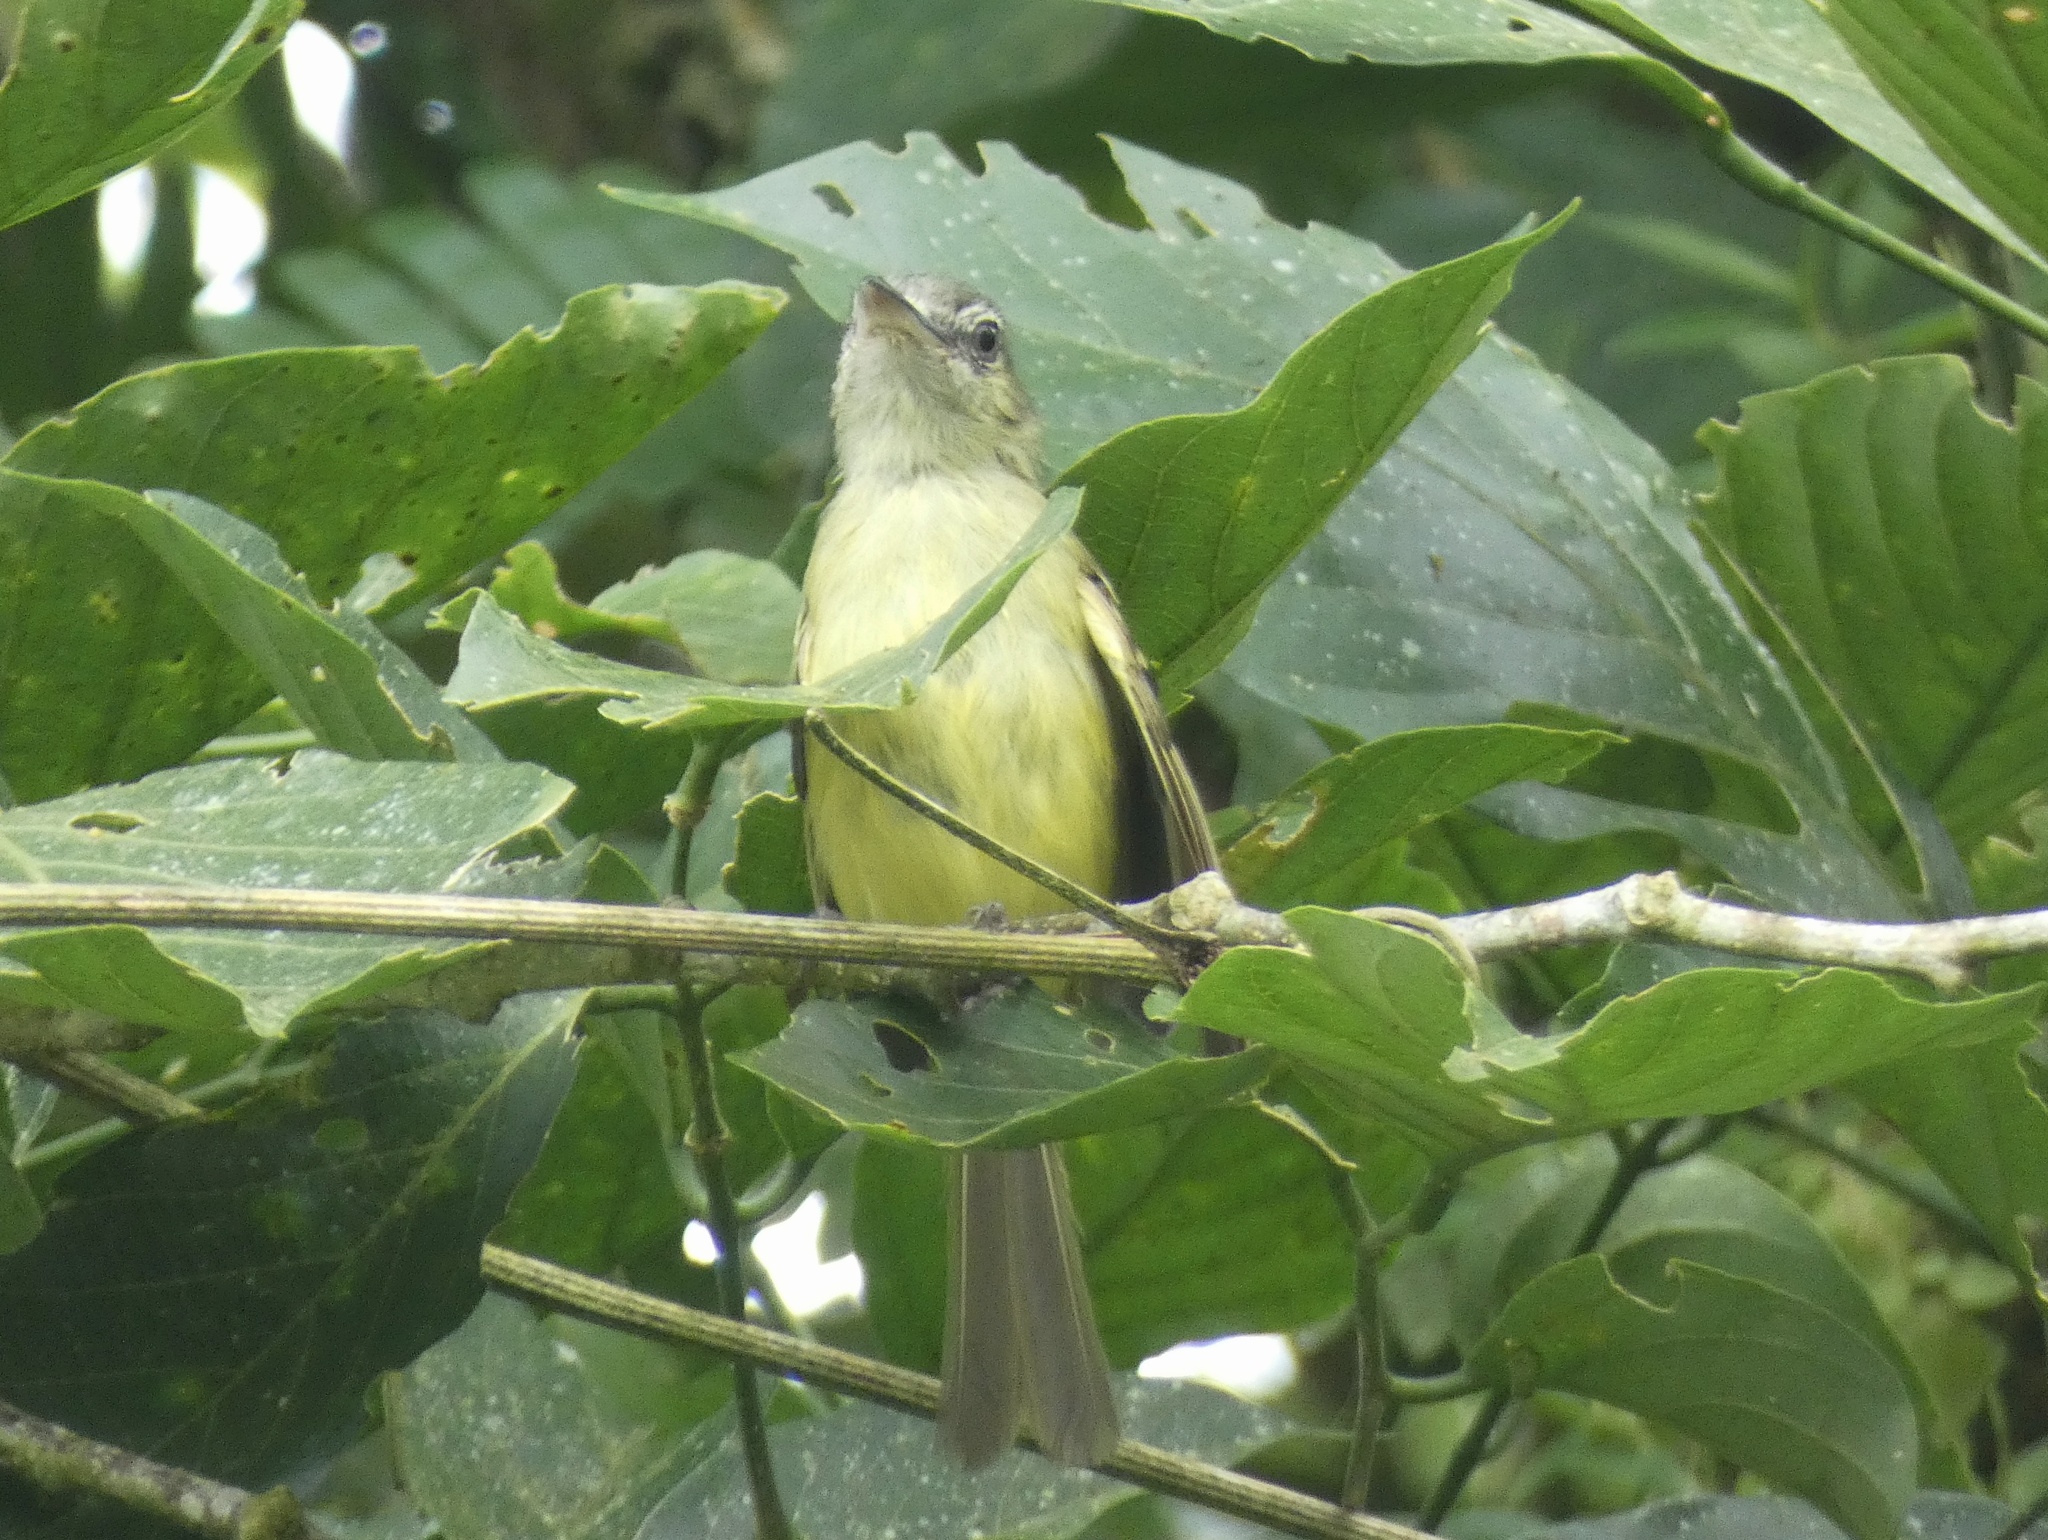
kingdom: Animalia
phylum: Chordata
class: Aves
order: Passeriformes
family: Tyrannidae
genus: Tolmomyias
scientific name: Tolmomyias sulphurescens
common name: Yellow-olive flycatcher
